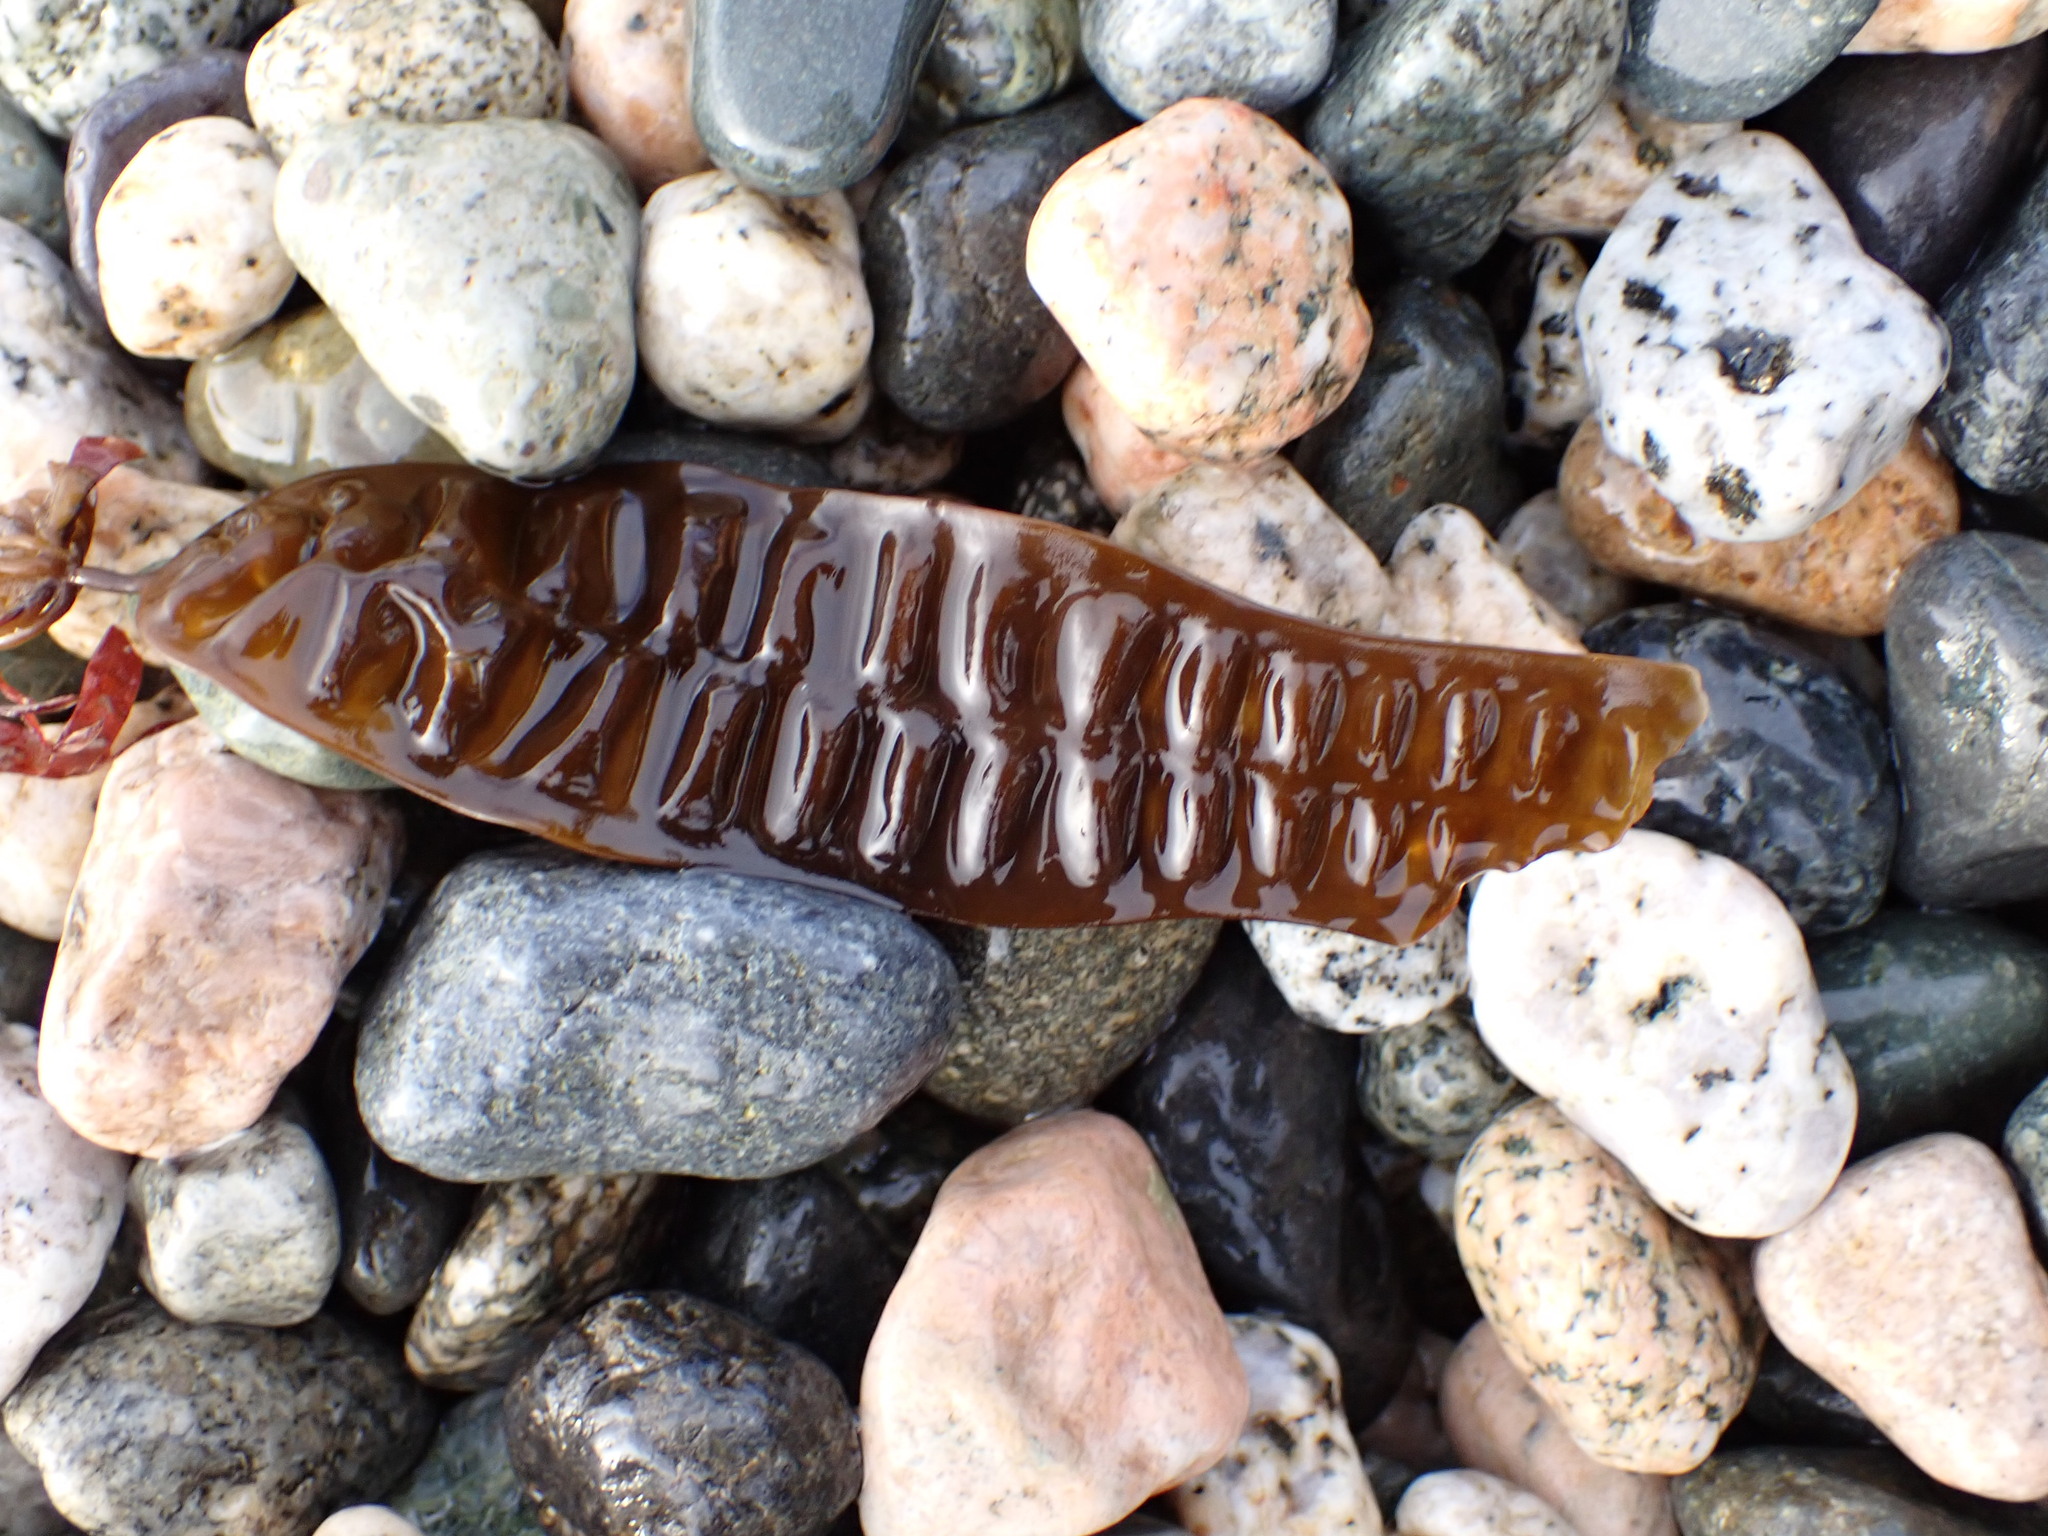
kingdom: Chromista
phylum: Ochrophyta
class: Phaeophyceae
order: Laminariales
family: Laminariaceae
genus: Saccharina
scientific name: Saccharina latissima
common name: Poor man's weather glass
